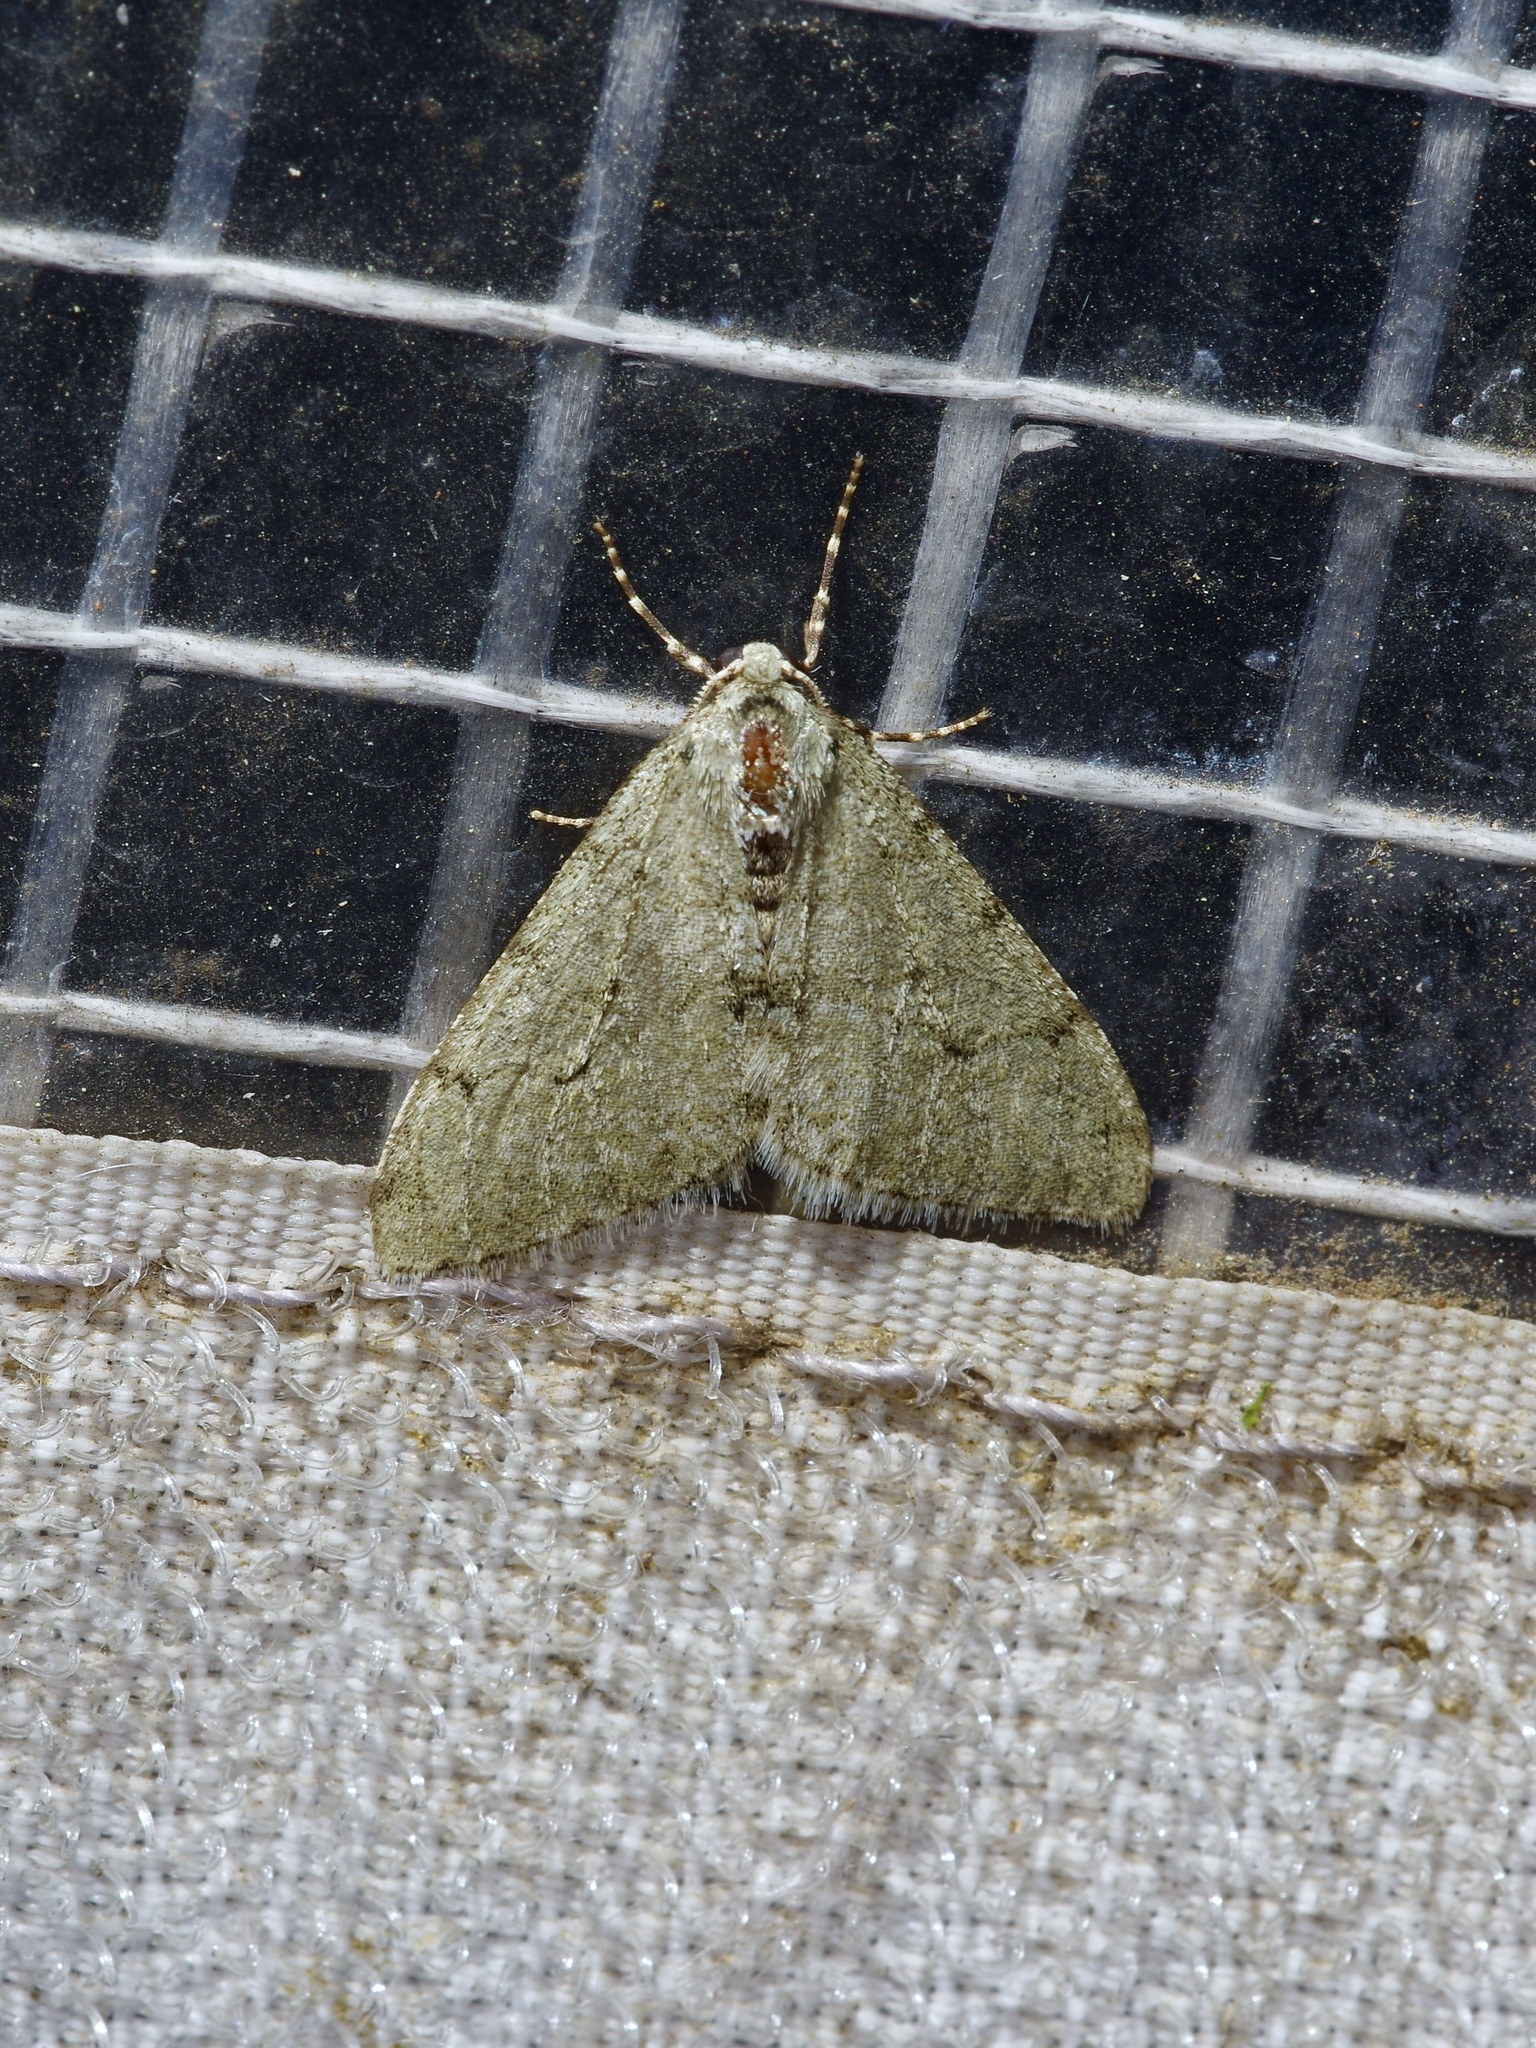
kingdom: Animalia
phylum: Arthropoda
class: Insecta
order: Lepidoptera
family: Geometridae
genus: Phigalia
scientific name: Phigalia strigataria
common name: Small phigalia
